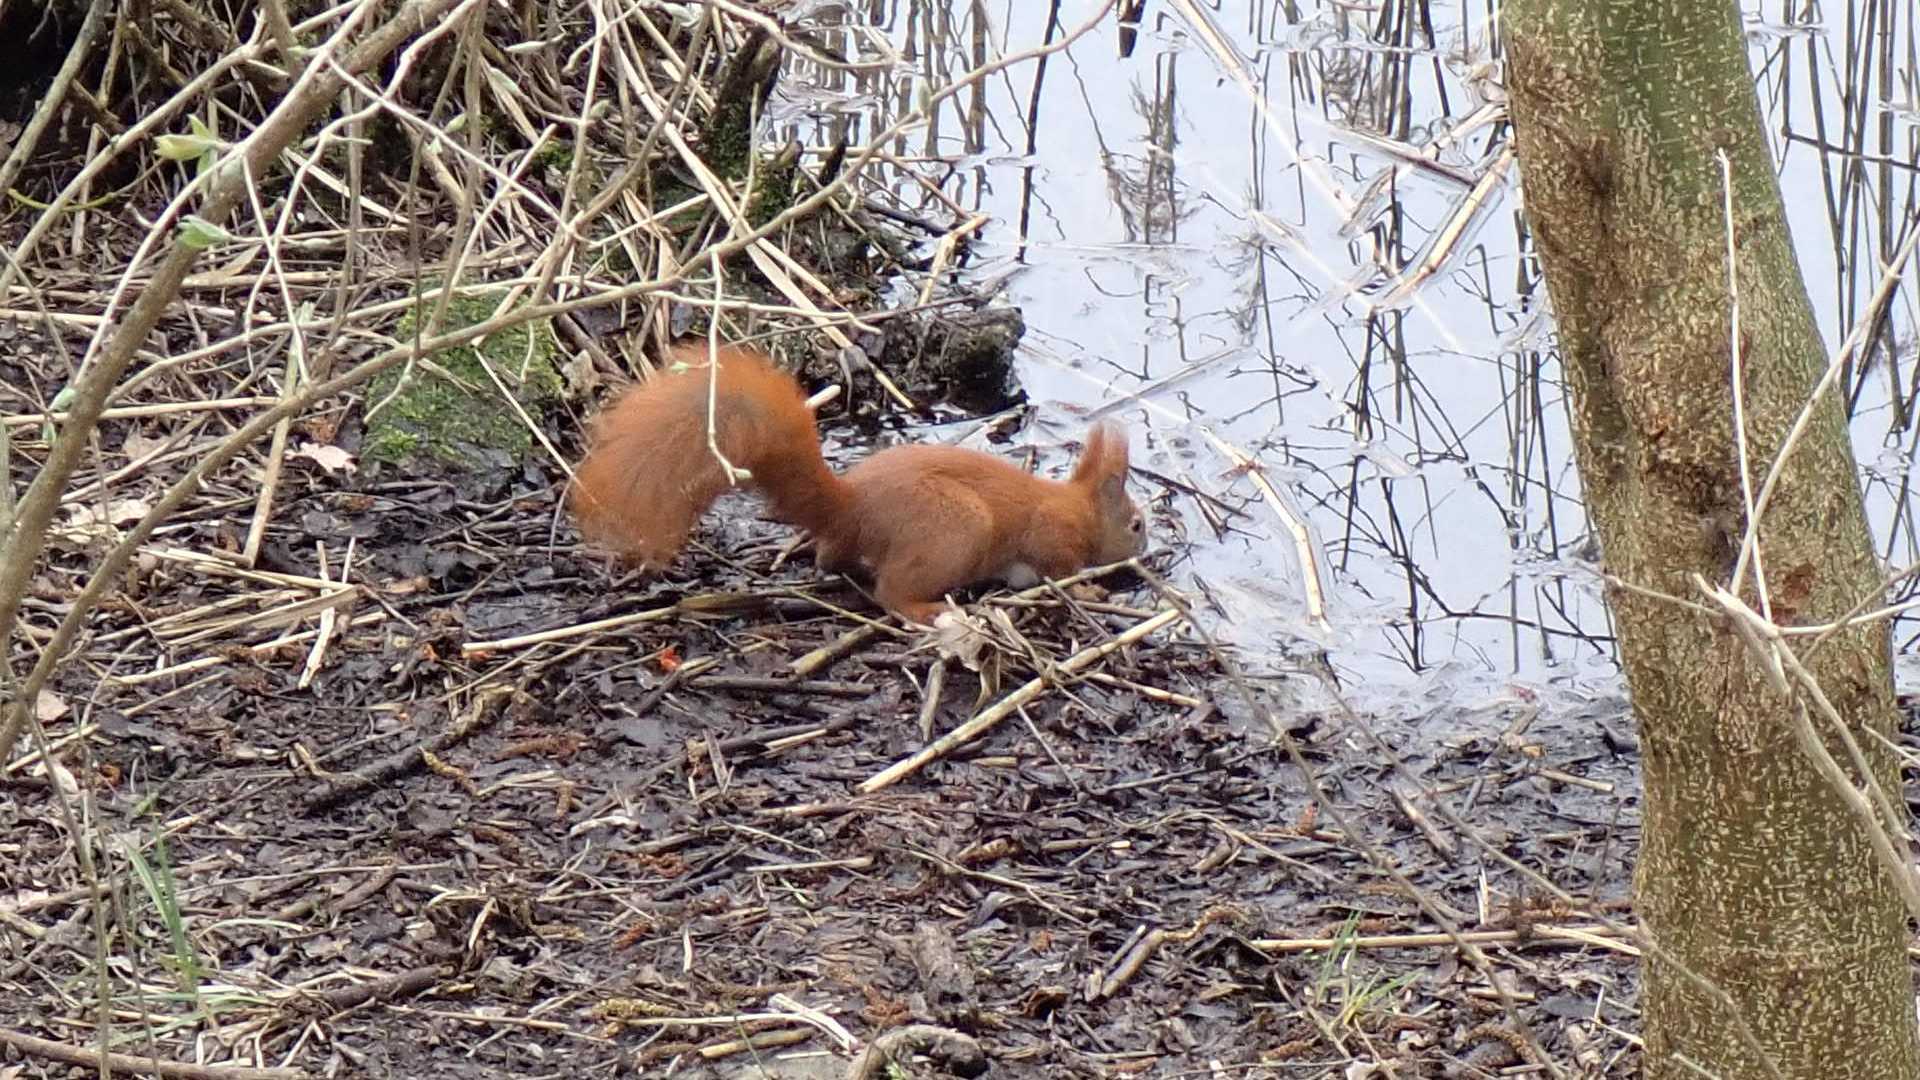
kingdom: Animalia
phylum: Chordata
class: Mammalia
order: Rodentia
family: Sciuridae
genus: Sciurus
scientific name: Sciurus vulgaris
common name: Eurasian red squirrel
